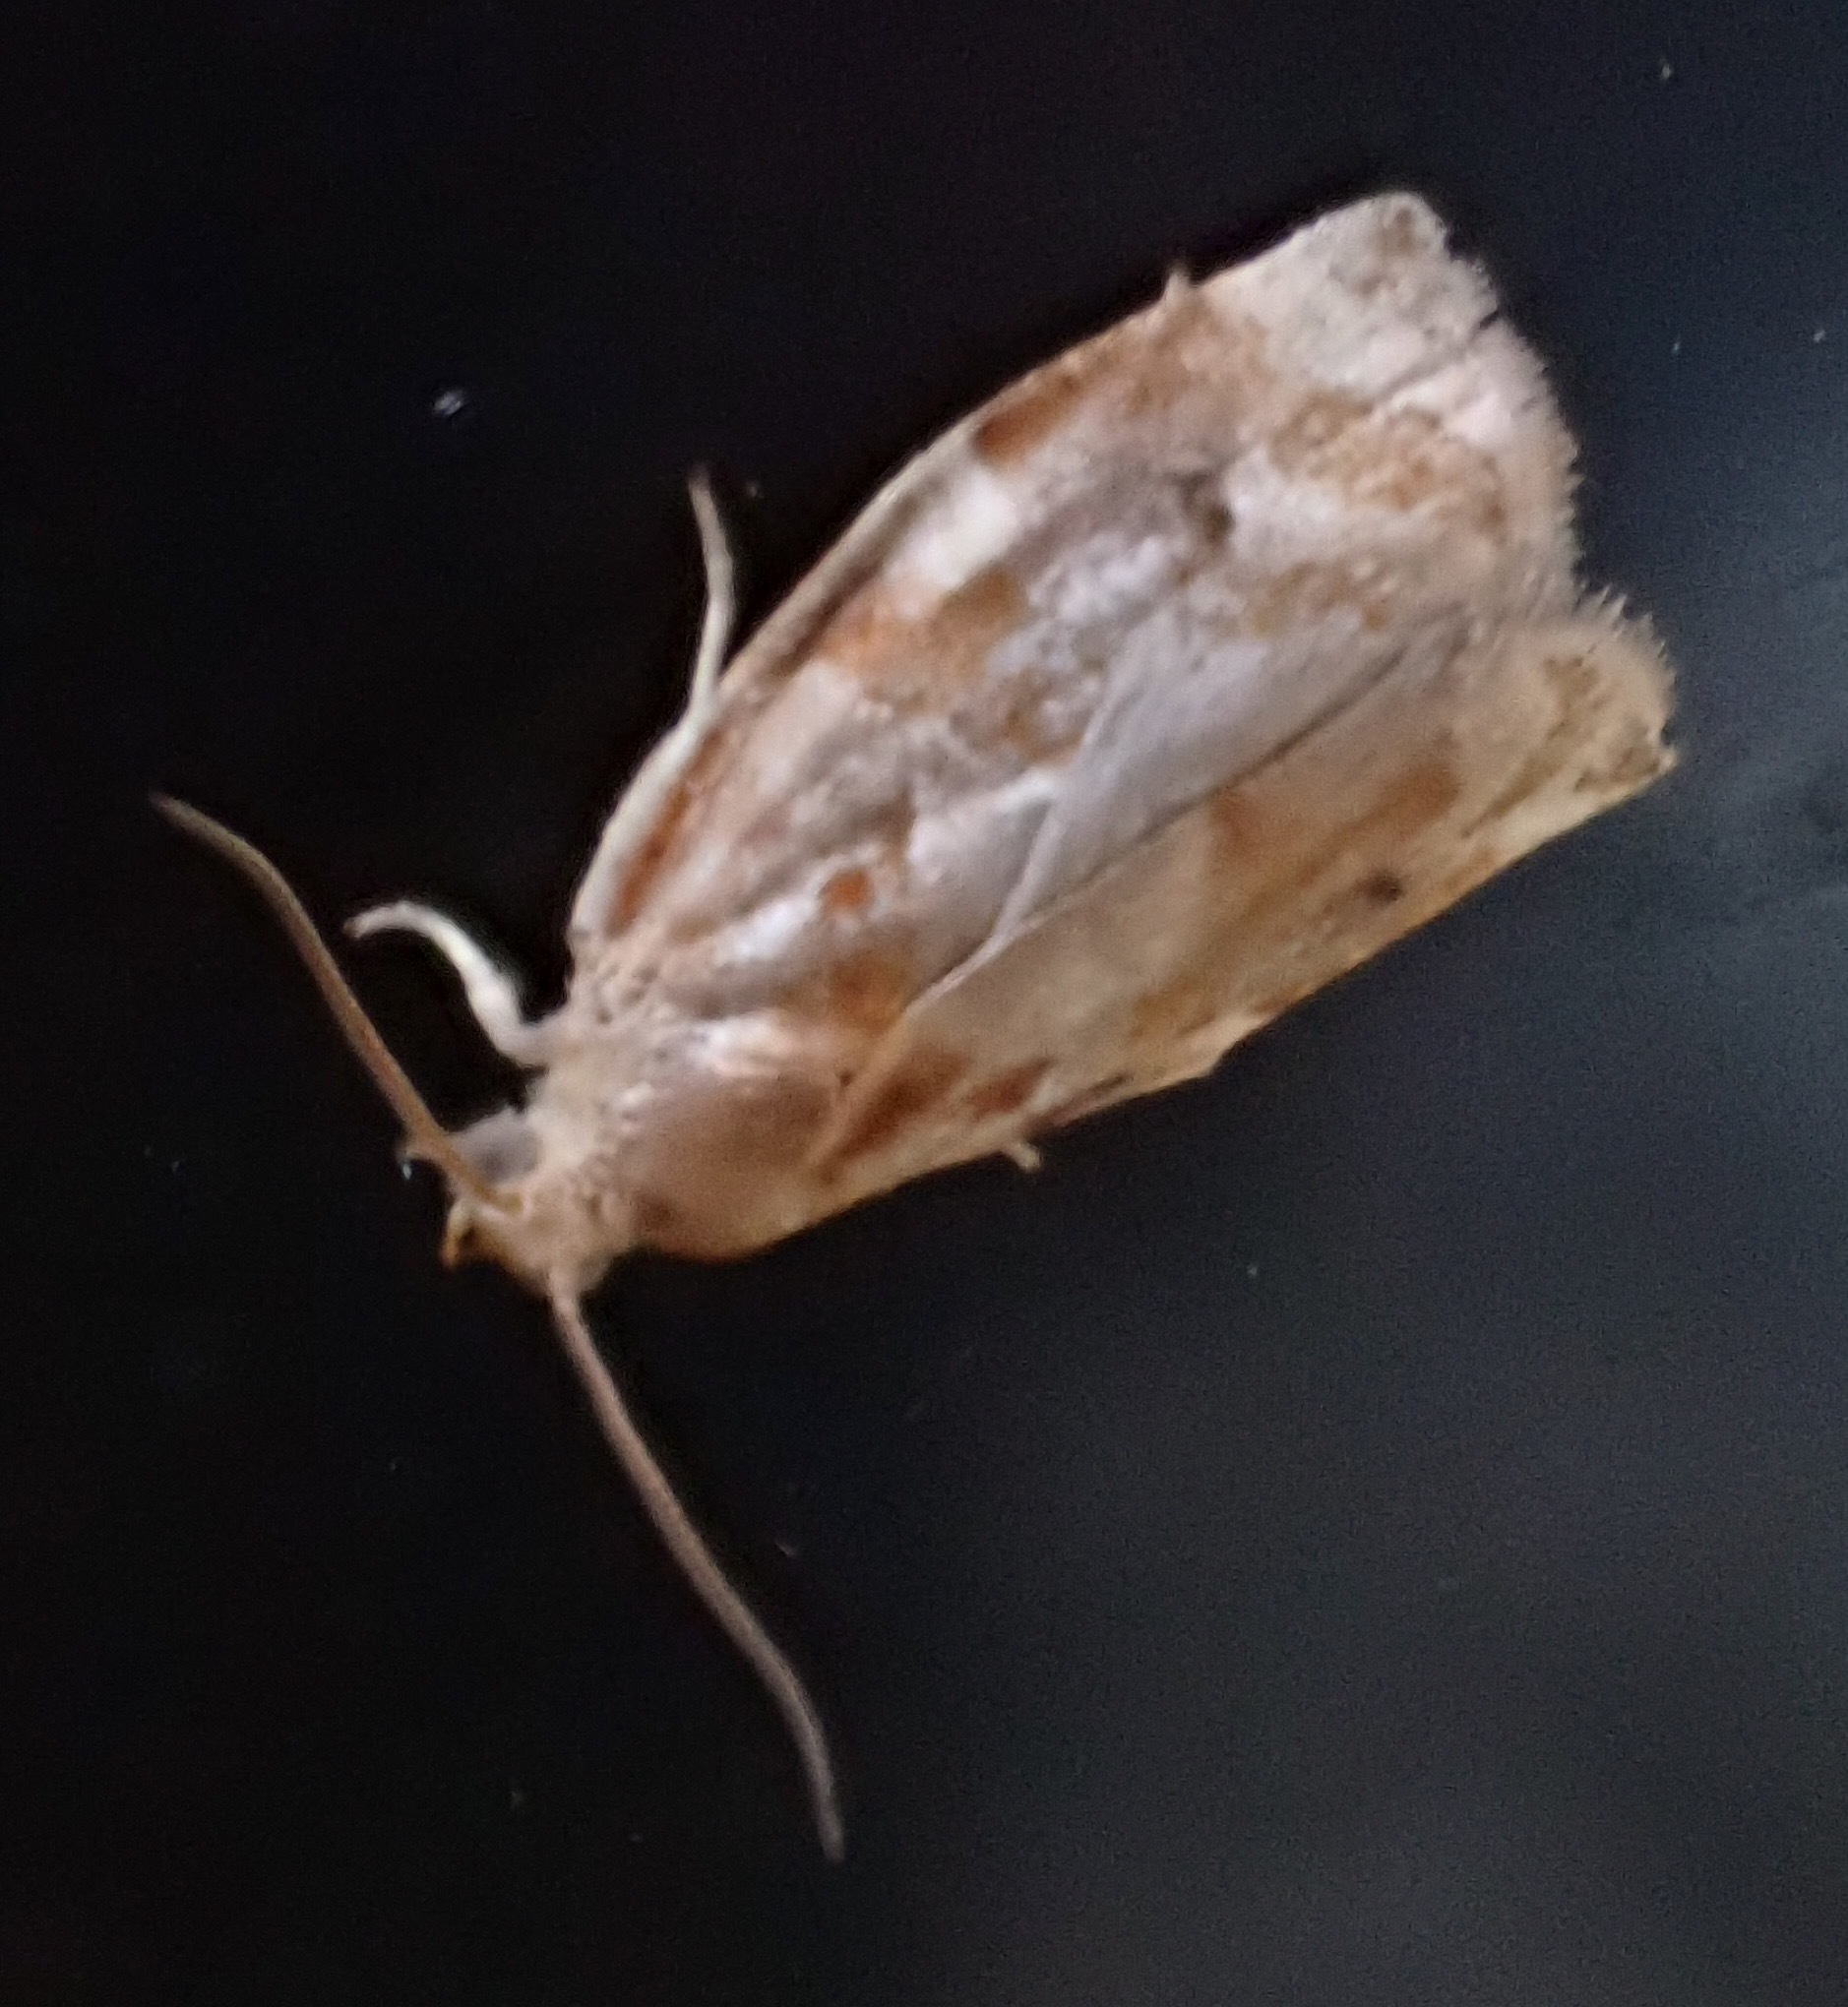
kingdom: Animalia
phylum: Arthropoda
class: Insecta
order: Lepidoptera
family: Tortricidae
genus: Archips
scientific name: Archips xylosteana
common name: Variegated golden tortrix
